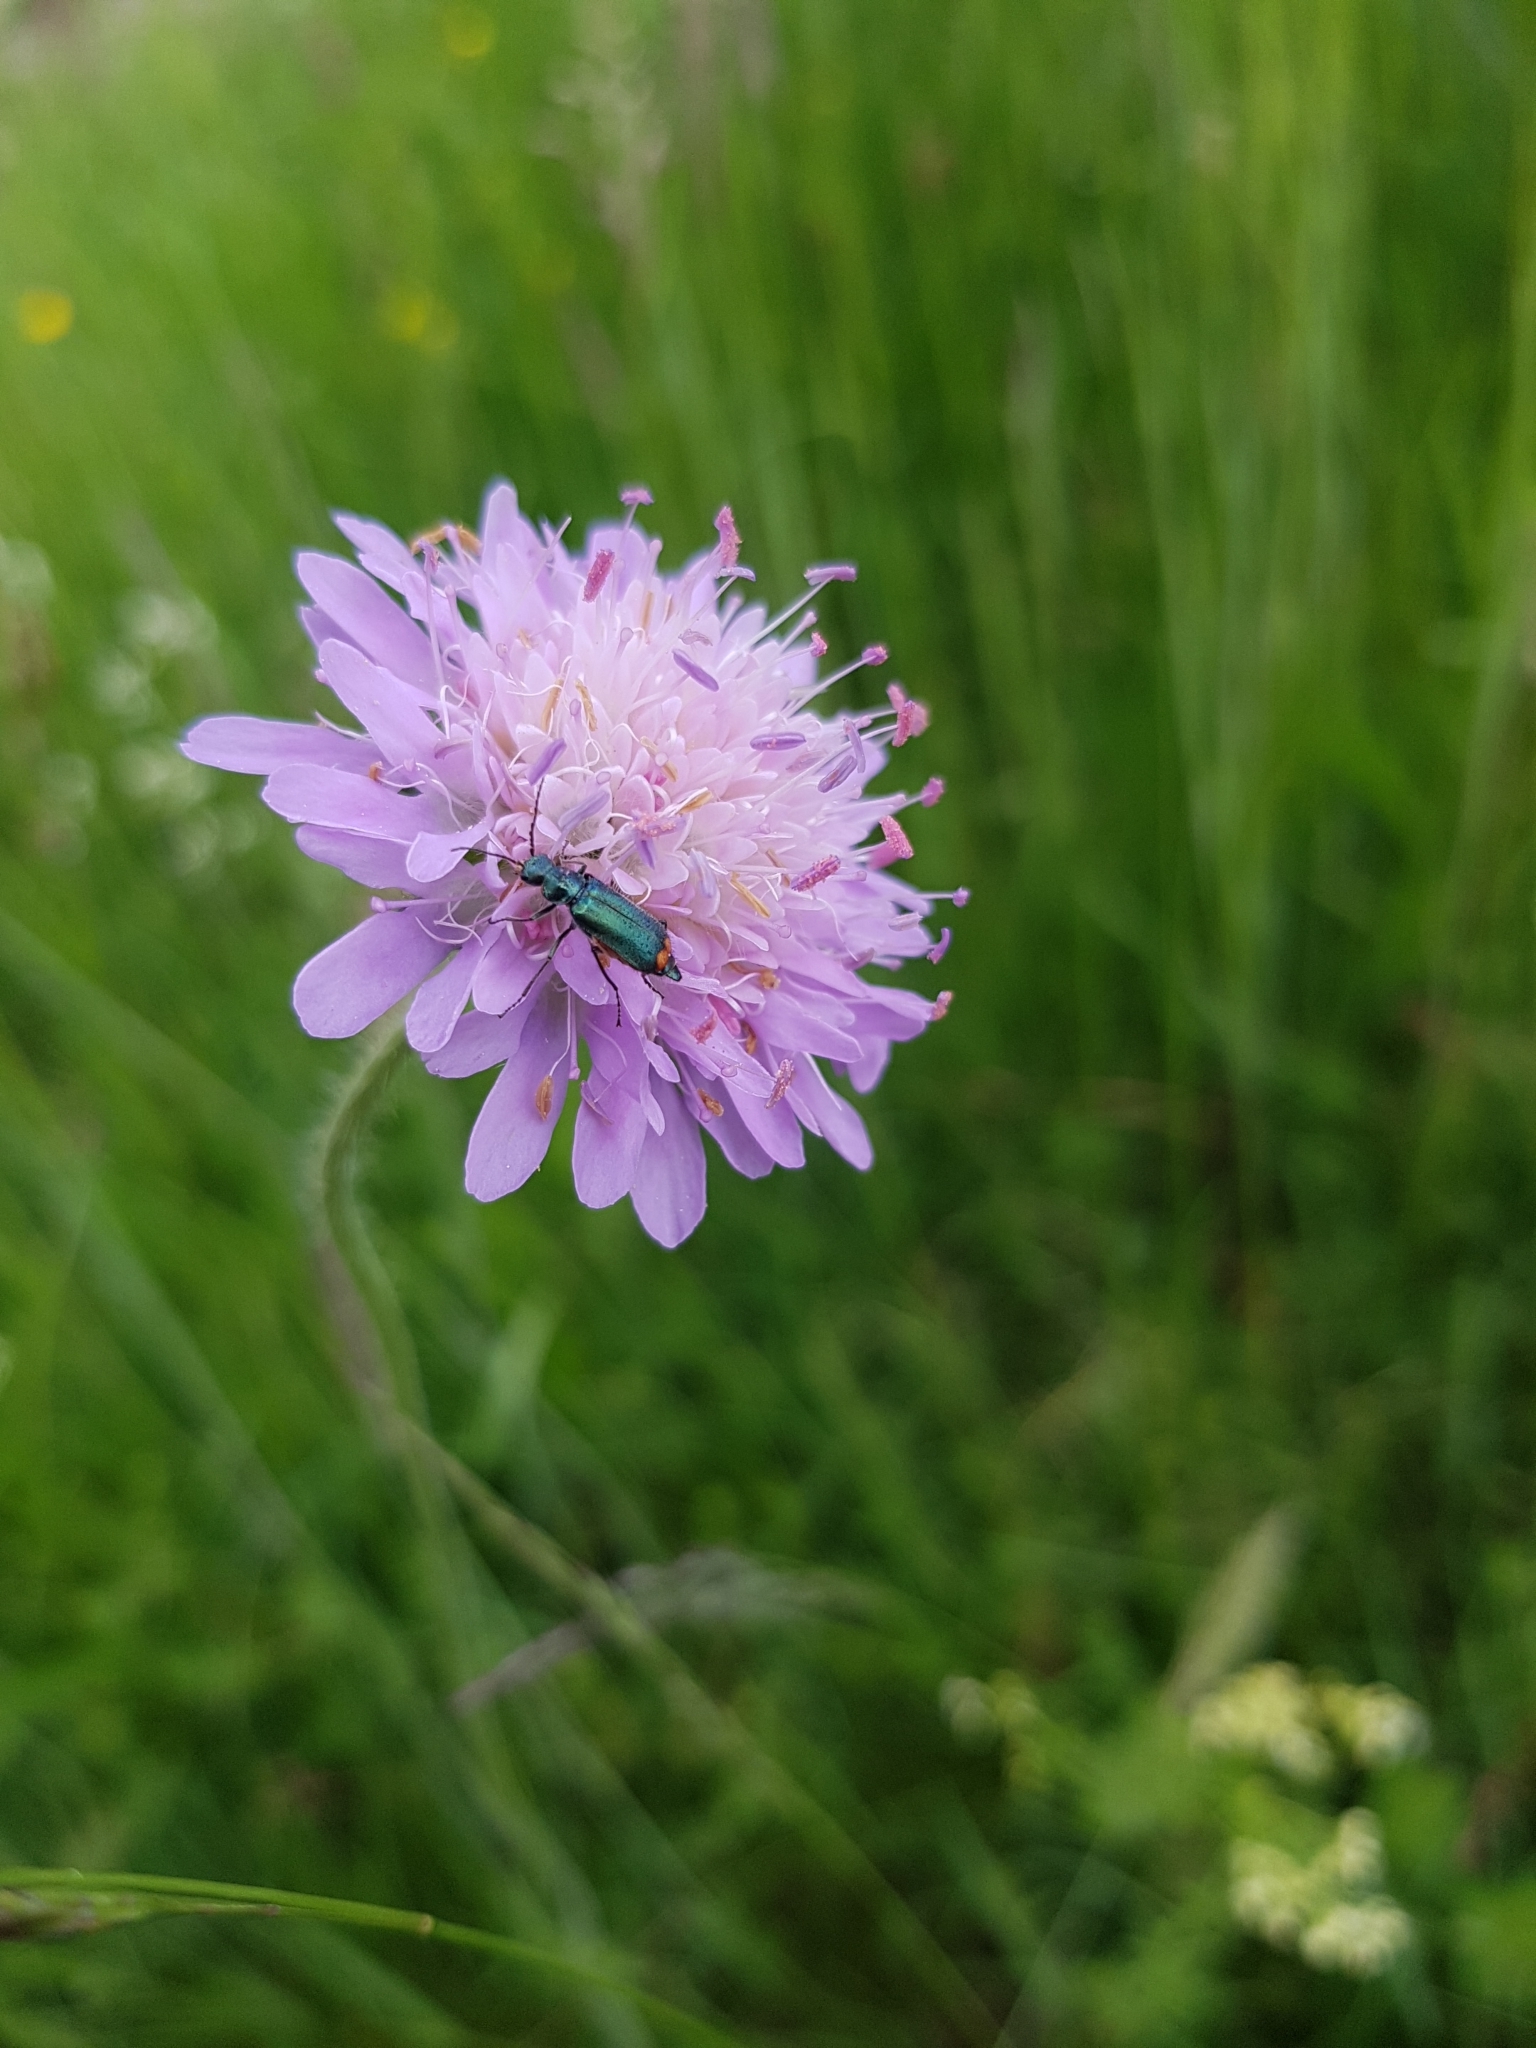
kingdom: Plantae
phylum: Tracheophyta
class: Magnoliopsida
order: Dipsacales
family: Caprifoliaceae
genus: Knautia
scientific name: Knautia arvensis
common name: Field scabiosa
